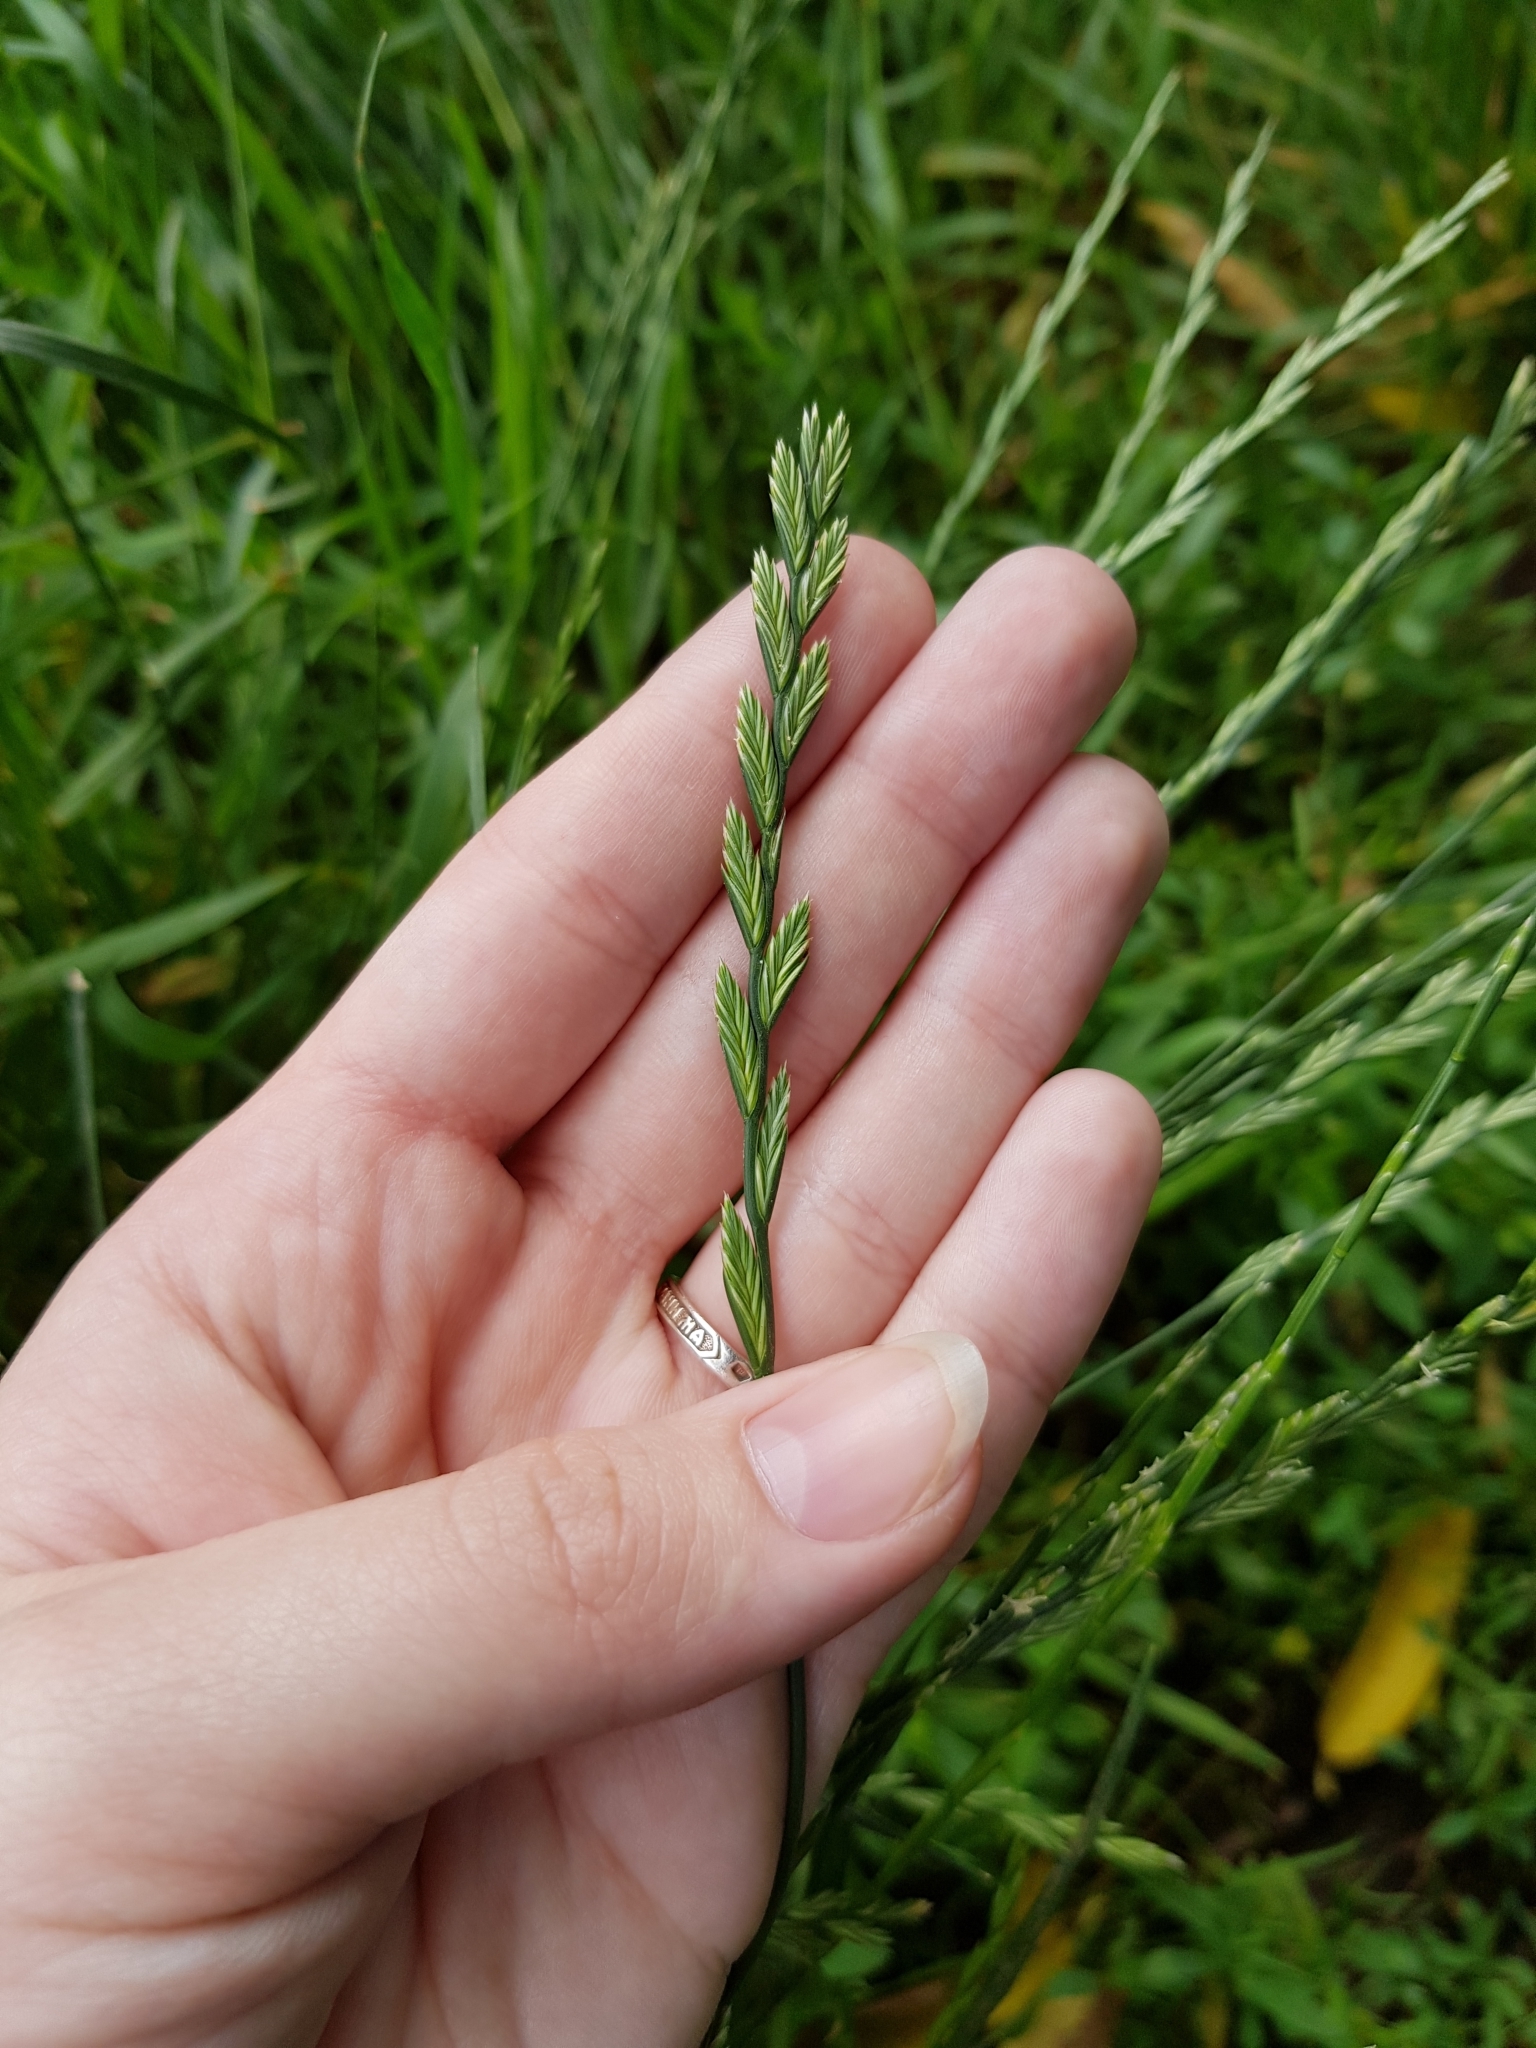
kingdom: Plantae
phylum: Tracheophyta
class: Liliopsida
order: Poales
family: Poaceae
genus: Lolium
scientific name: Lolium perenne
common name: Perennial ryegrass
